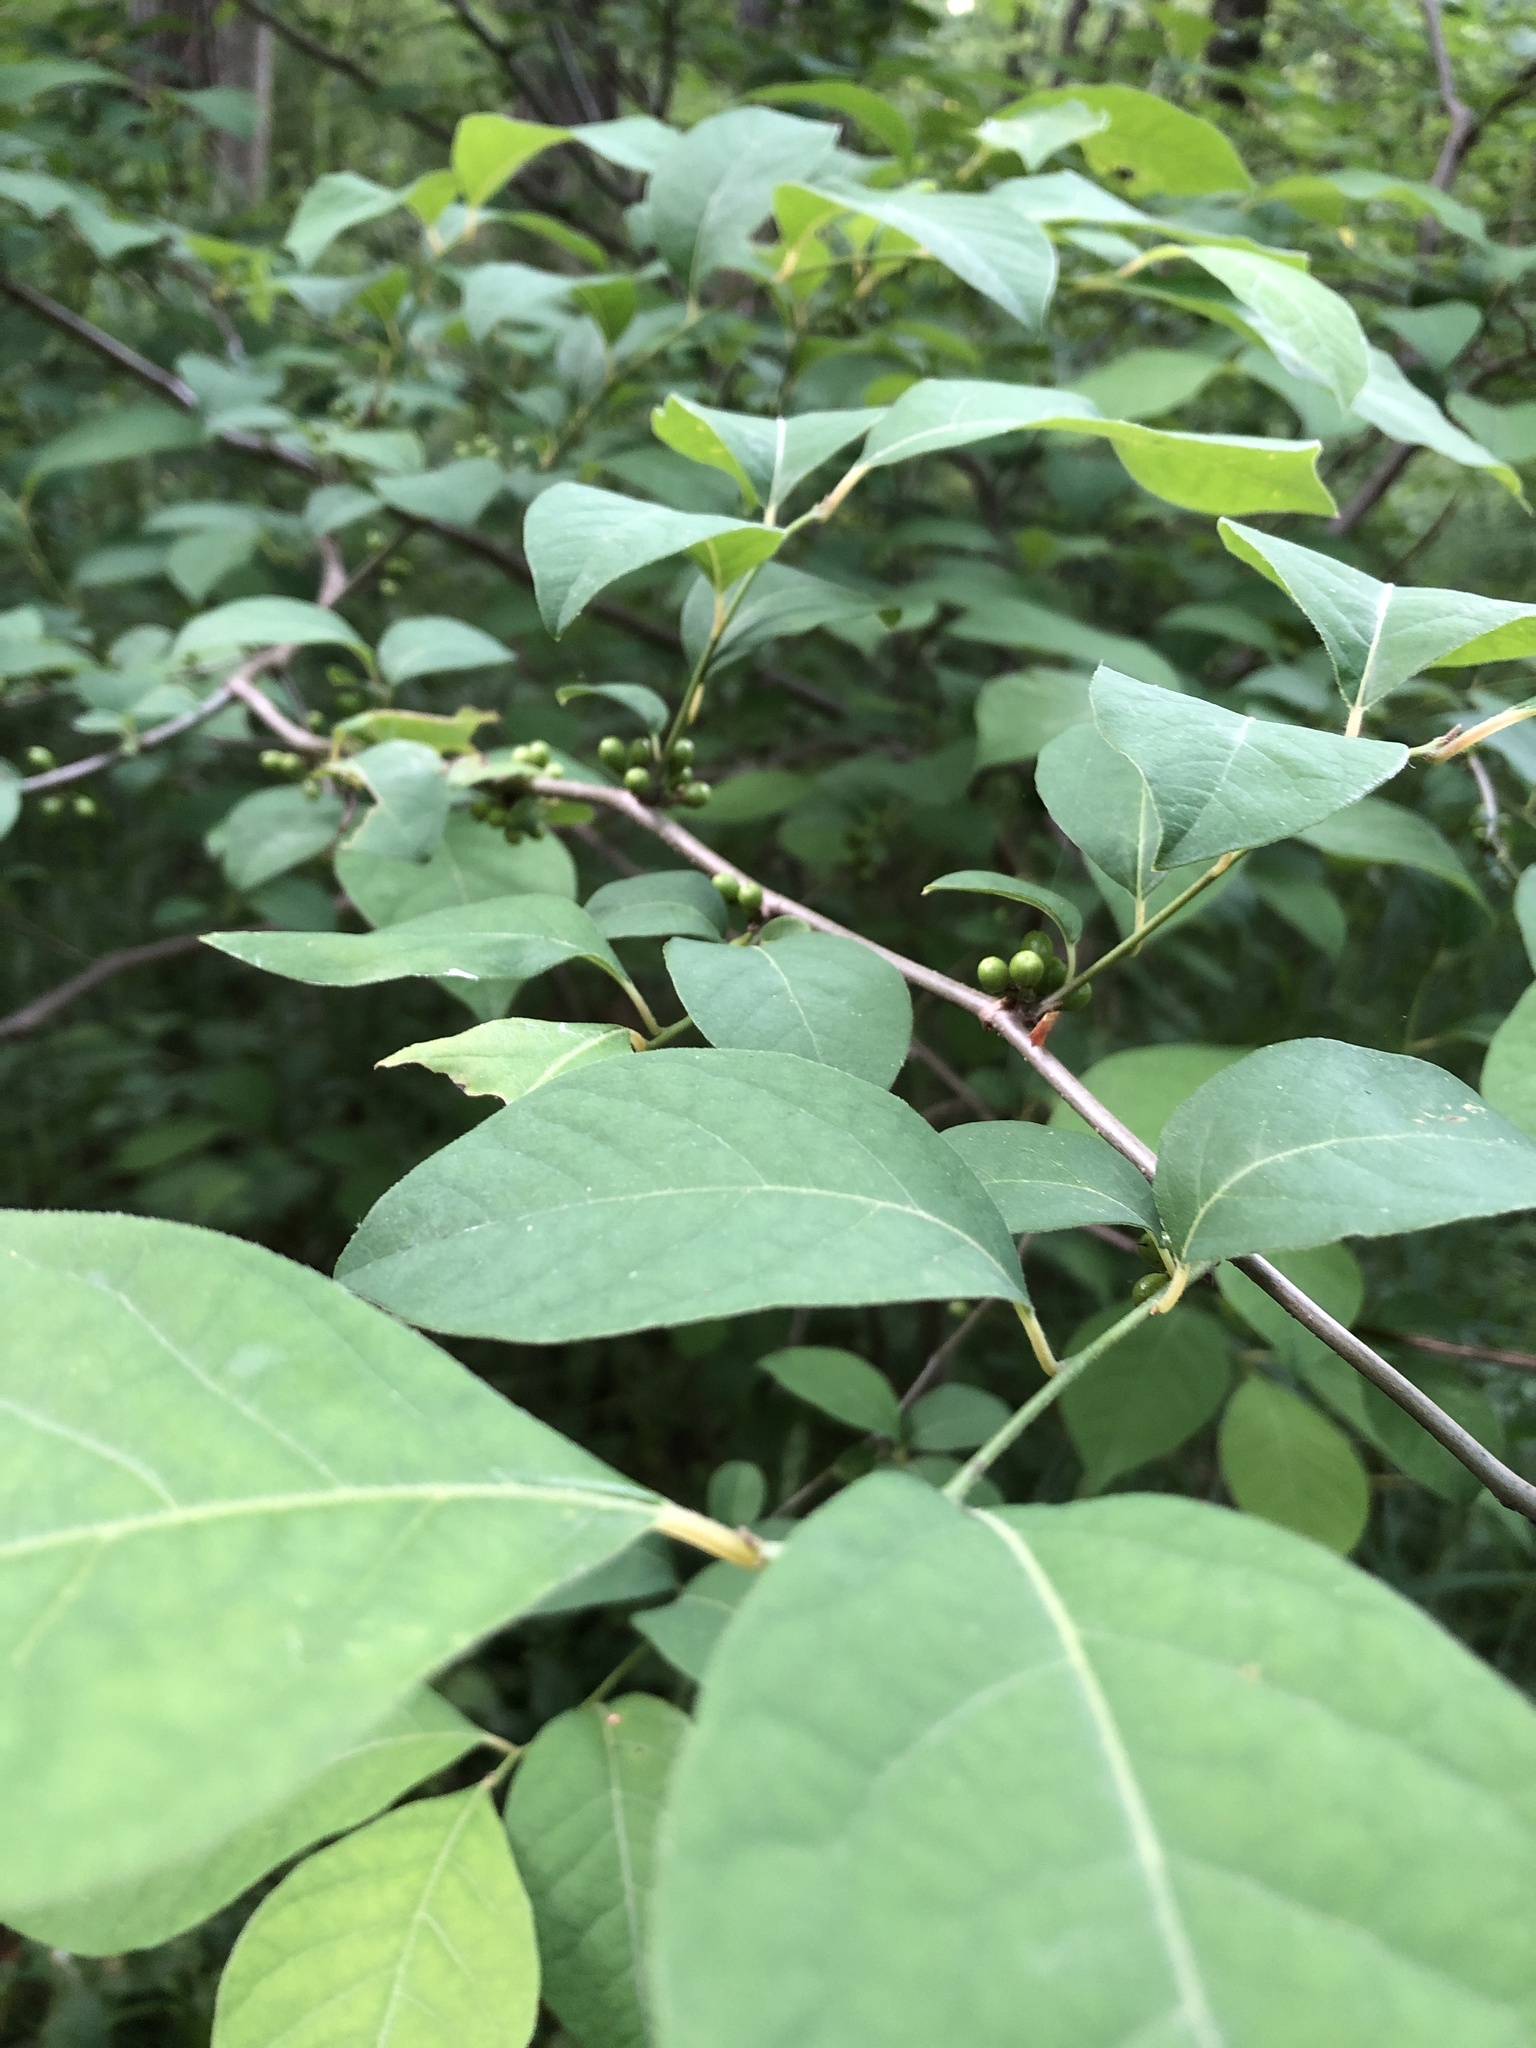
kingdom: Plantae
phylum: Tracheophyta
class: Magnoliopsida
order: Laurales
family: Lauraceae
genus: Lindera
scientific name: Lindera benzoin
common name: Spicebush
